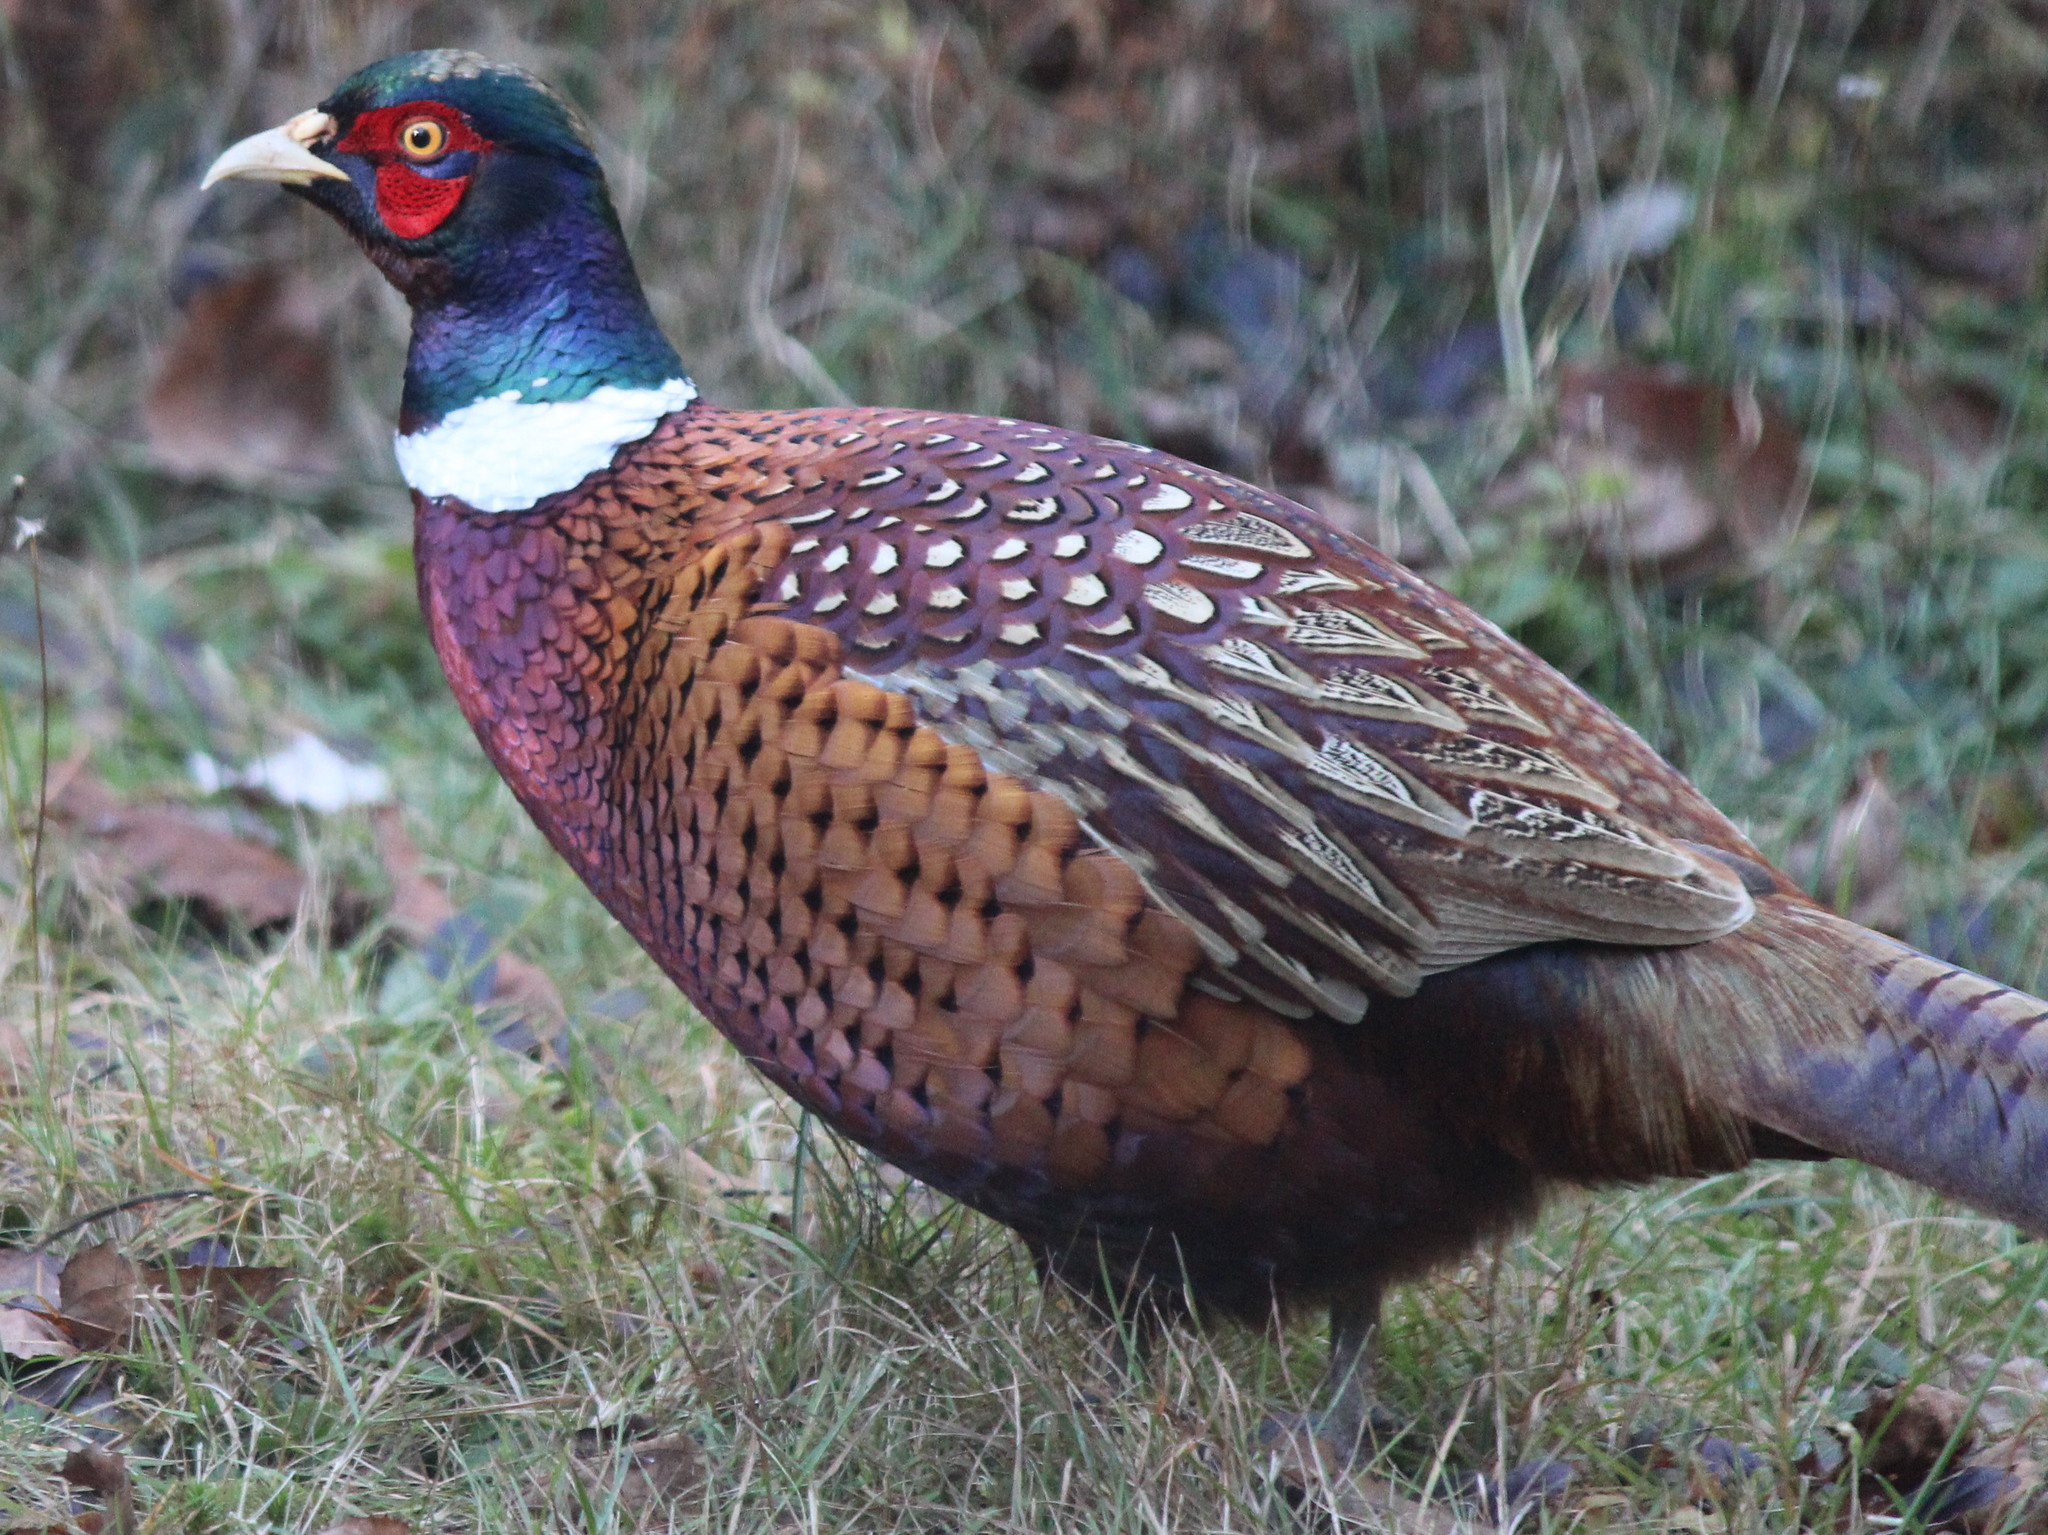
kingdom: Animalia
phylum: Chordata
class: Aves
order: Galliformes
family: Phasianidae
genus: Phasianus
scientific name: Phasianus colchicus
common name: Common pheasant
